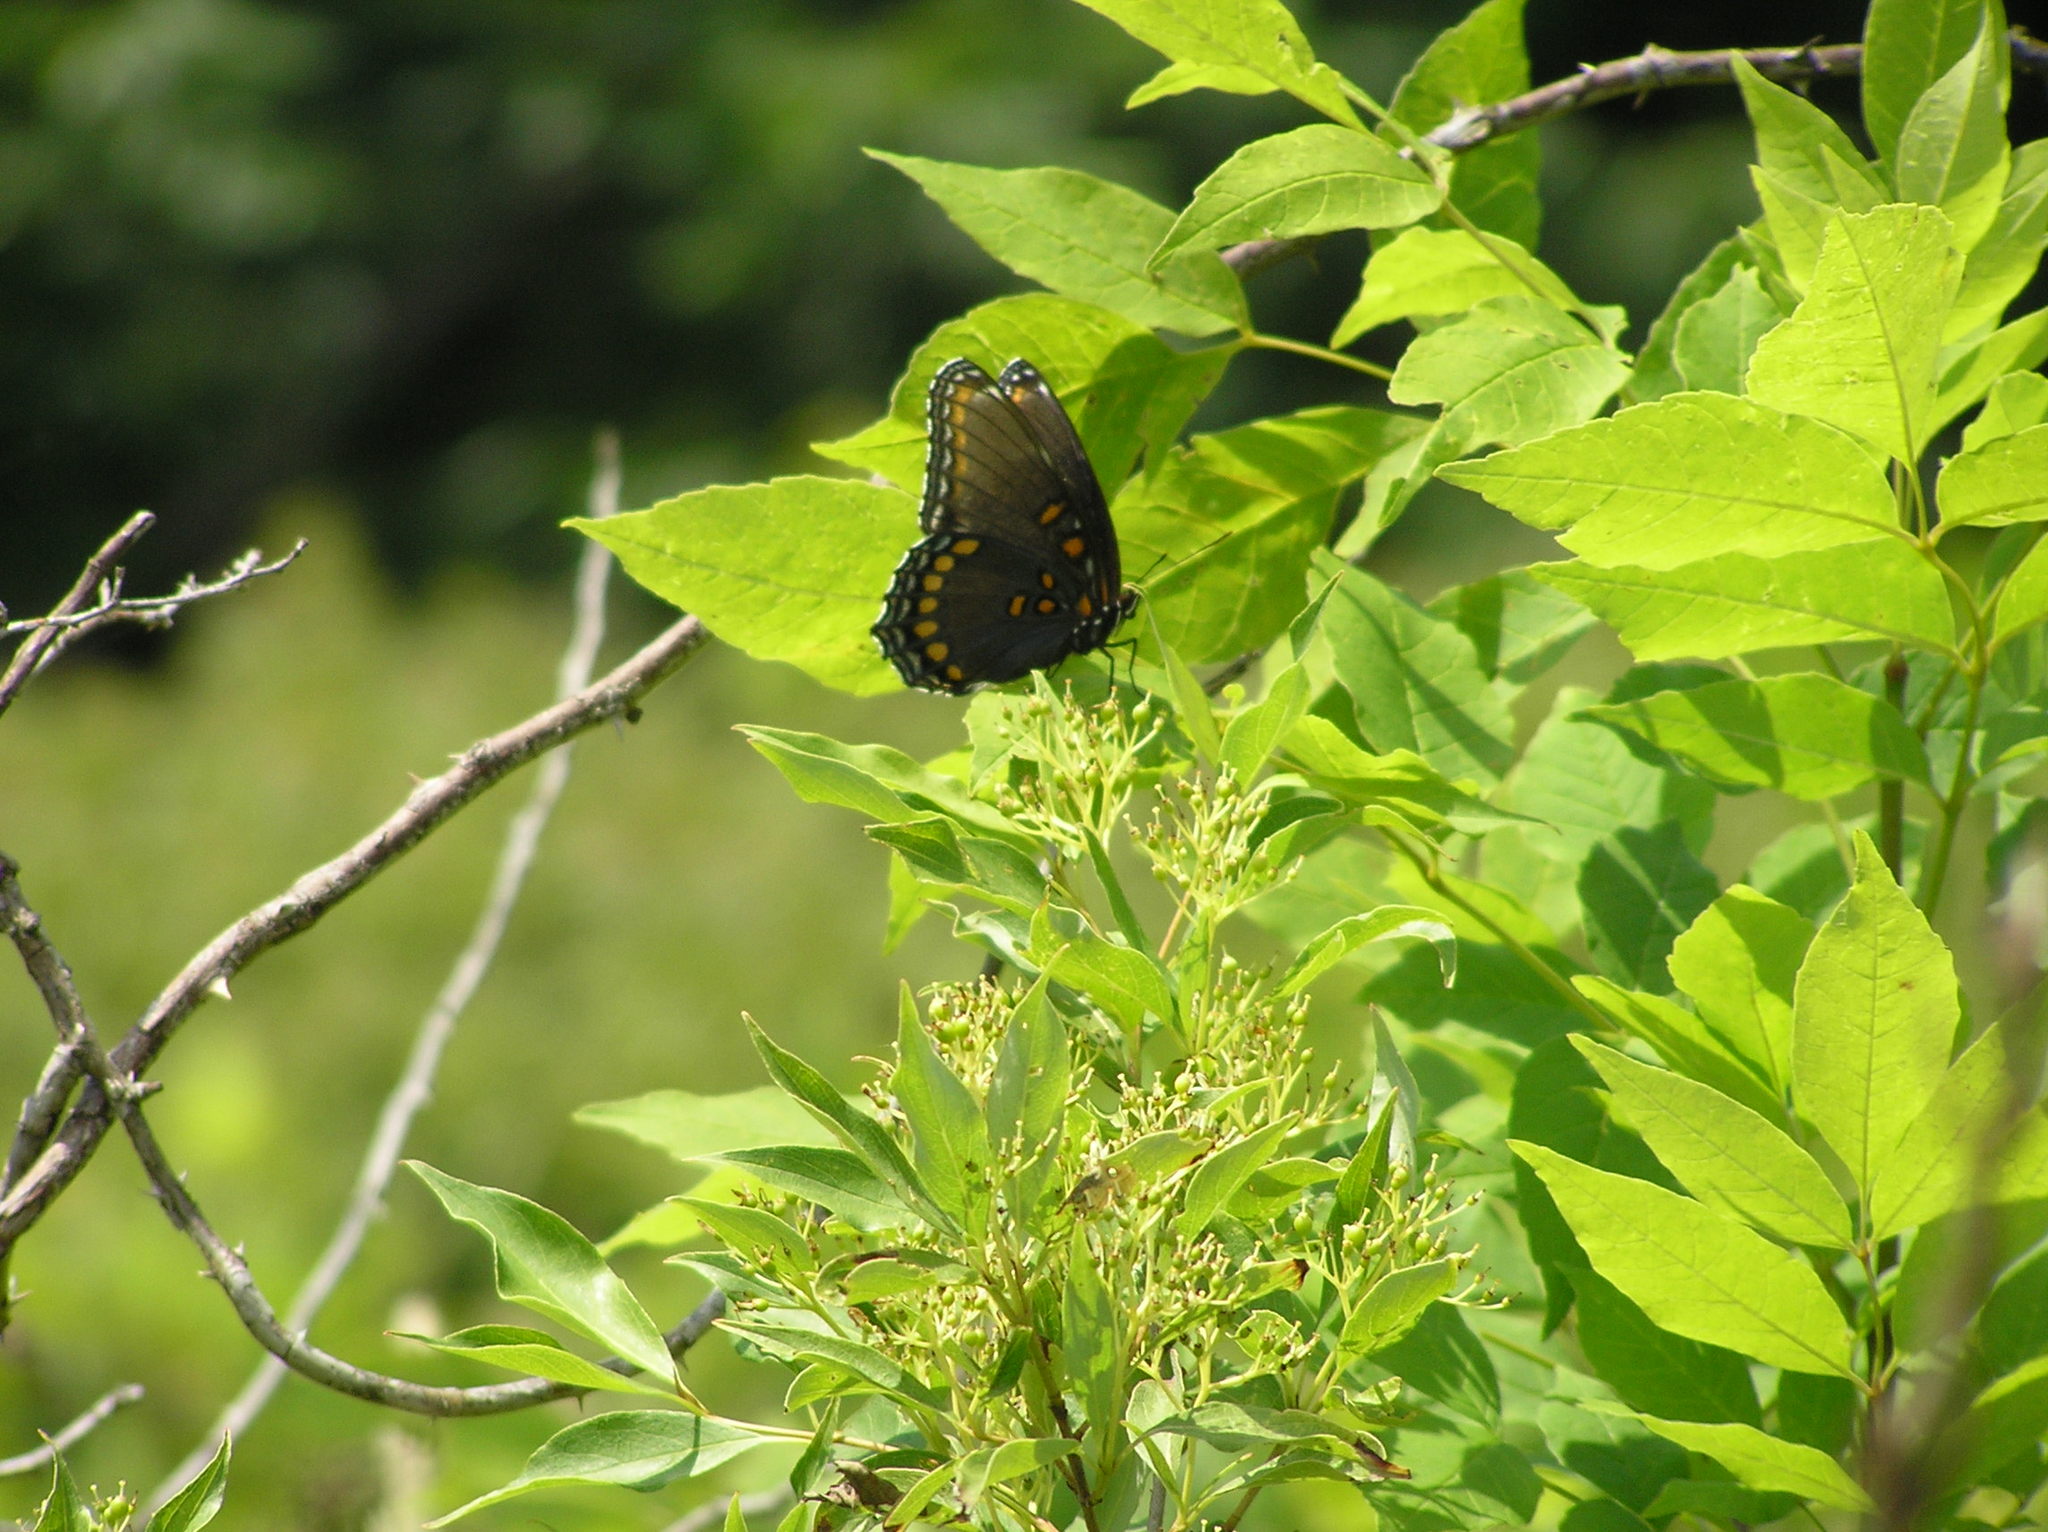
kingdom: Animalia
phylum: Arthropoda
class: Insecta
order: Lepidoptera
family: Nymphalidae
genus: Limenitis
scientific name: Limenitis astyanax
